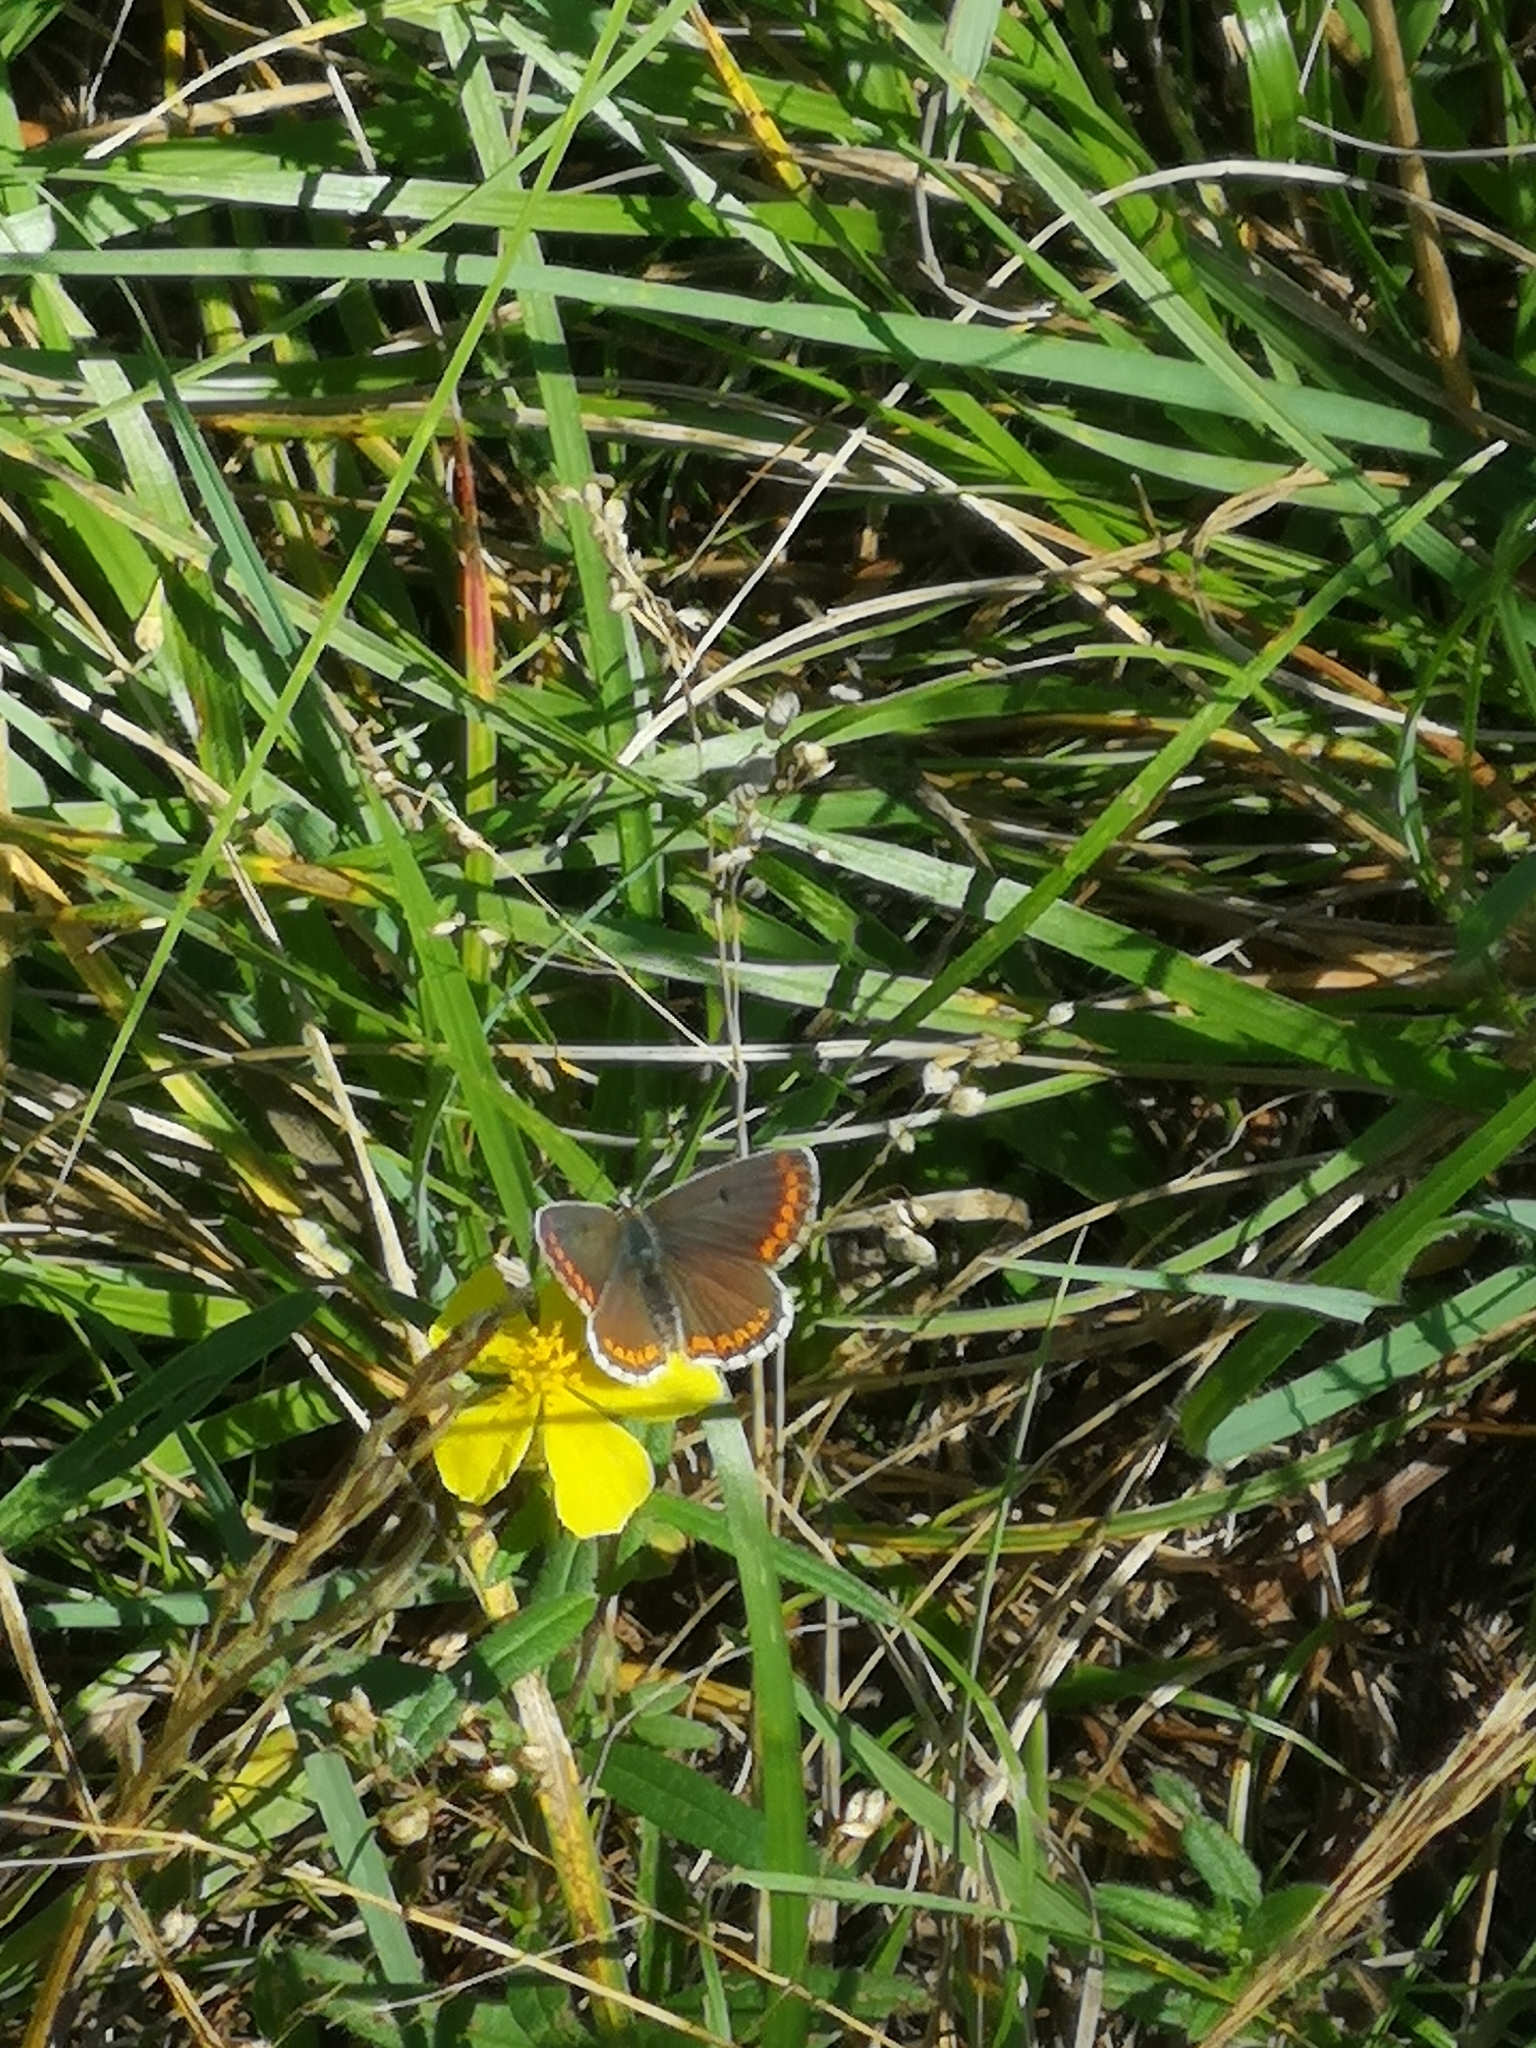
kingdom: Animalia
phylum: Arthropoda
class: Insecta
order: Lepidoptera
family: Lycaenidae
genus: Aricia
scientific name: Aricia agestis
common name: Brown argus
